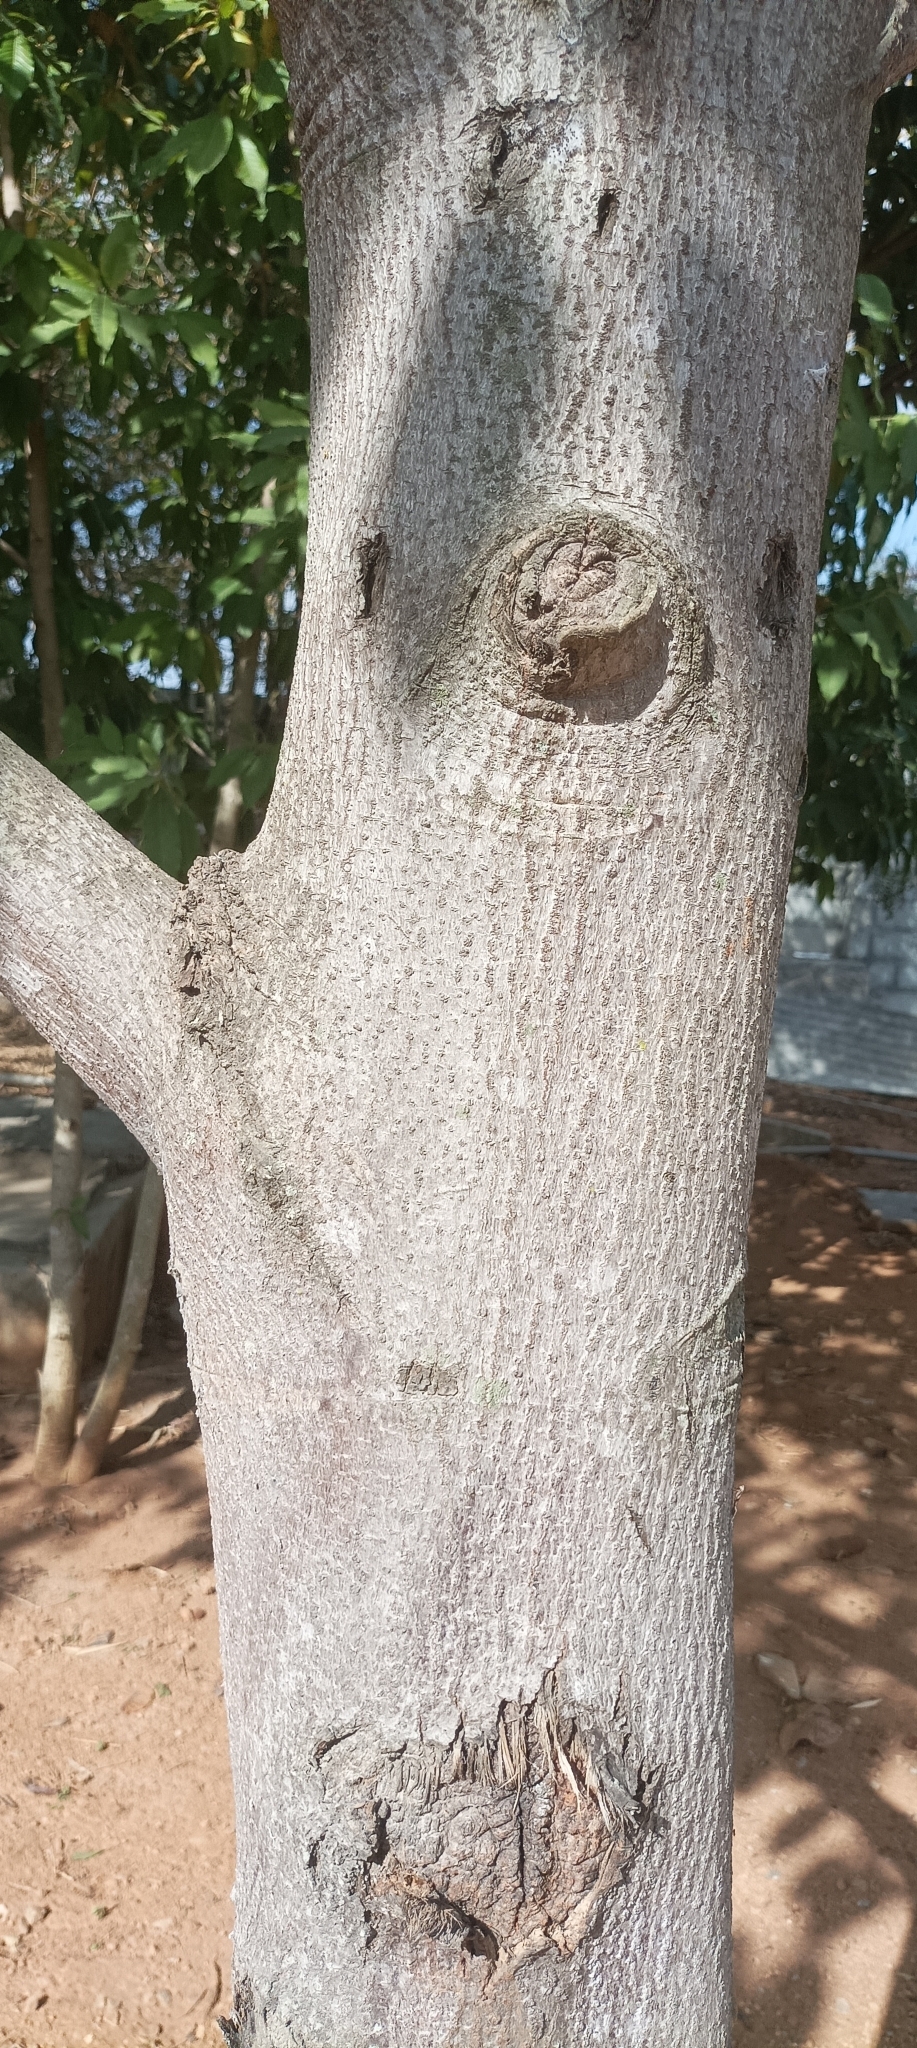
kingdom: Plantae
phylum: Tracheophyta
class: Magnoliopsida
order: Gentianales
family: Rubiaceae
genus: Neolamarckia
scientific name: Neolamarckia cadamba
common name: Leichhardt-pine
